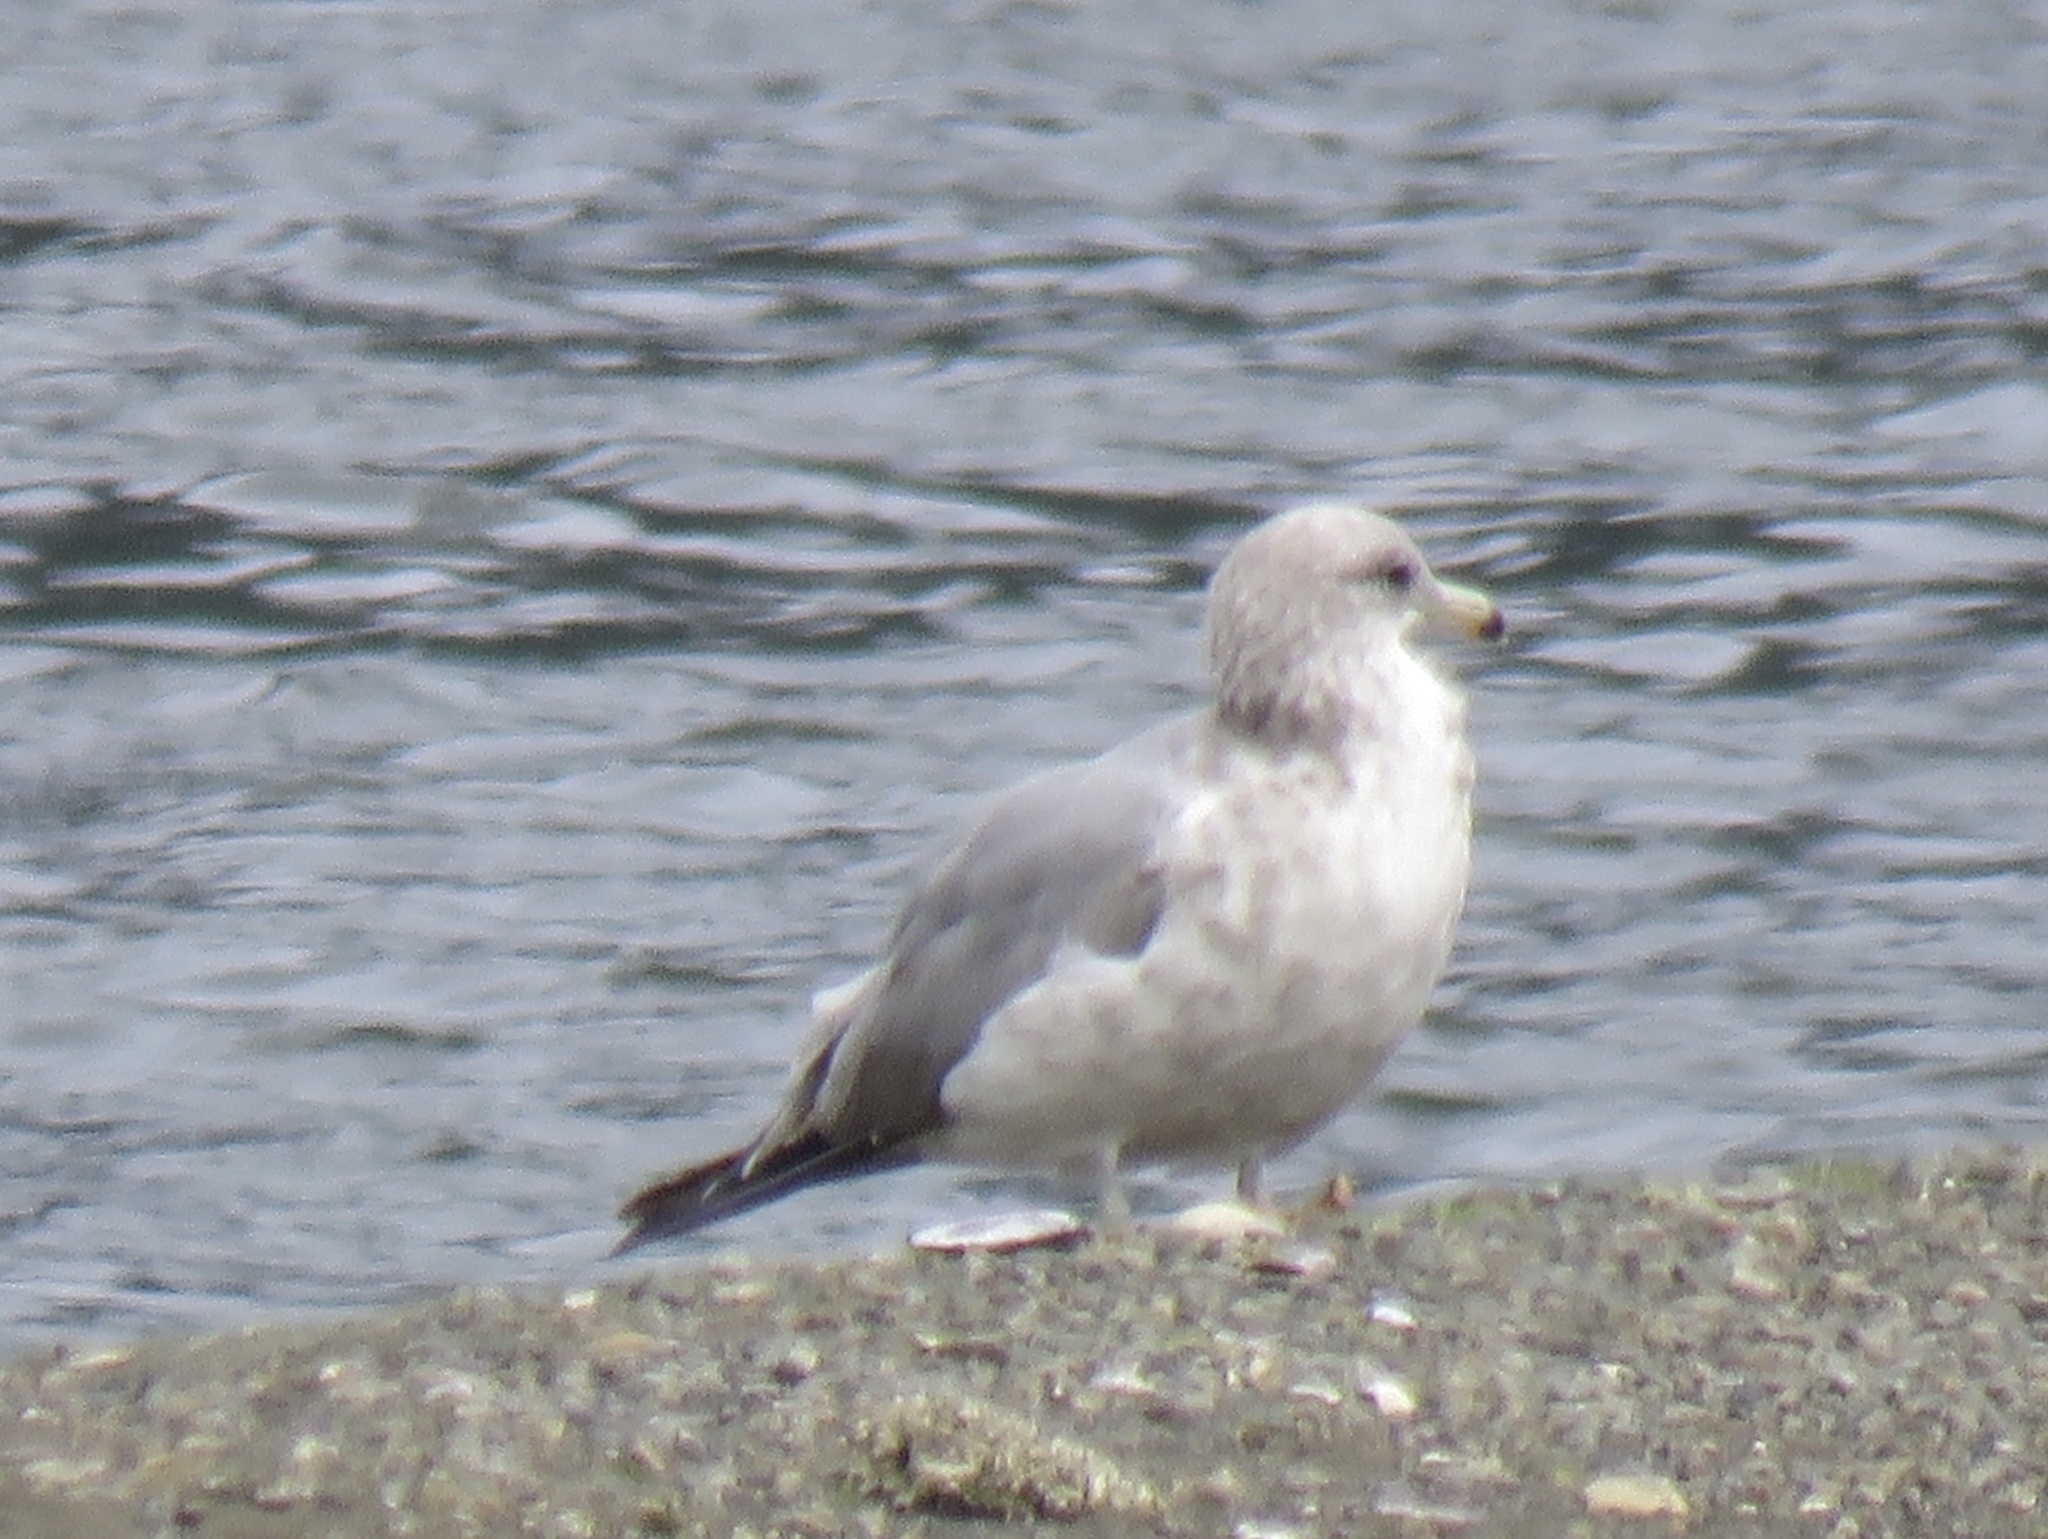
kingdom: Animalia
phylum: Chordata
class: Aves
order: Charadriiformes
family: Laridae
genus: Larus
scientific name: Larus californicus
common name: California gull
